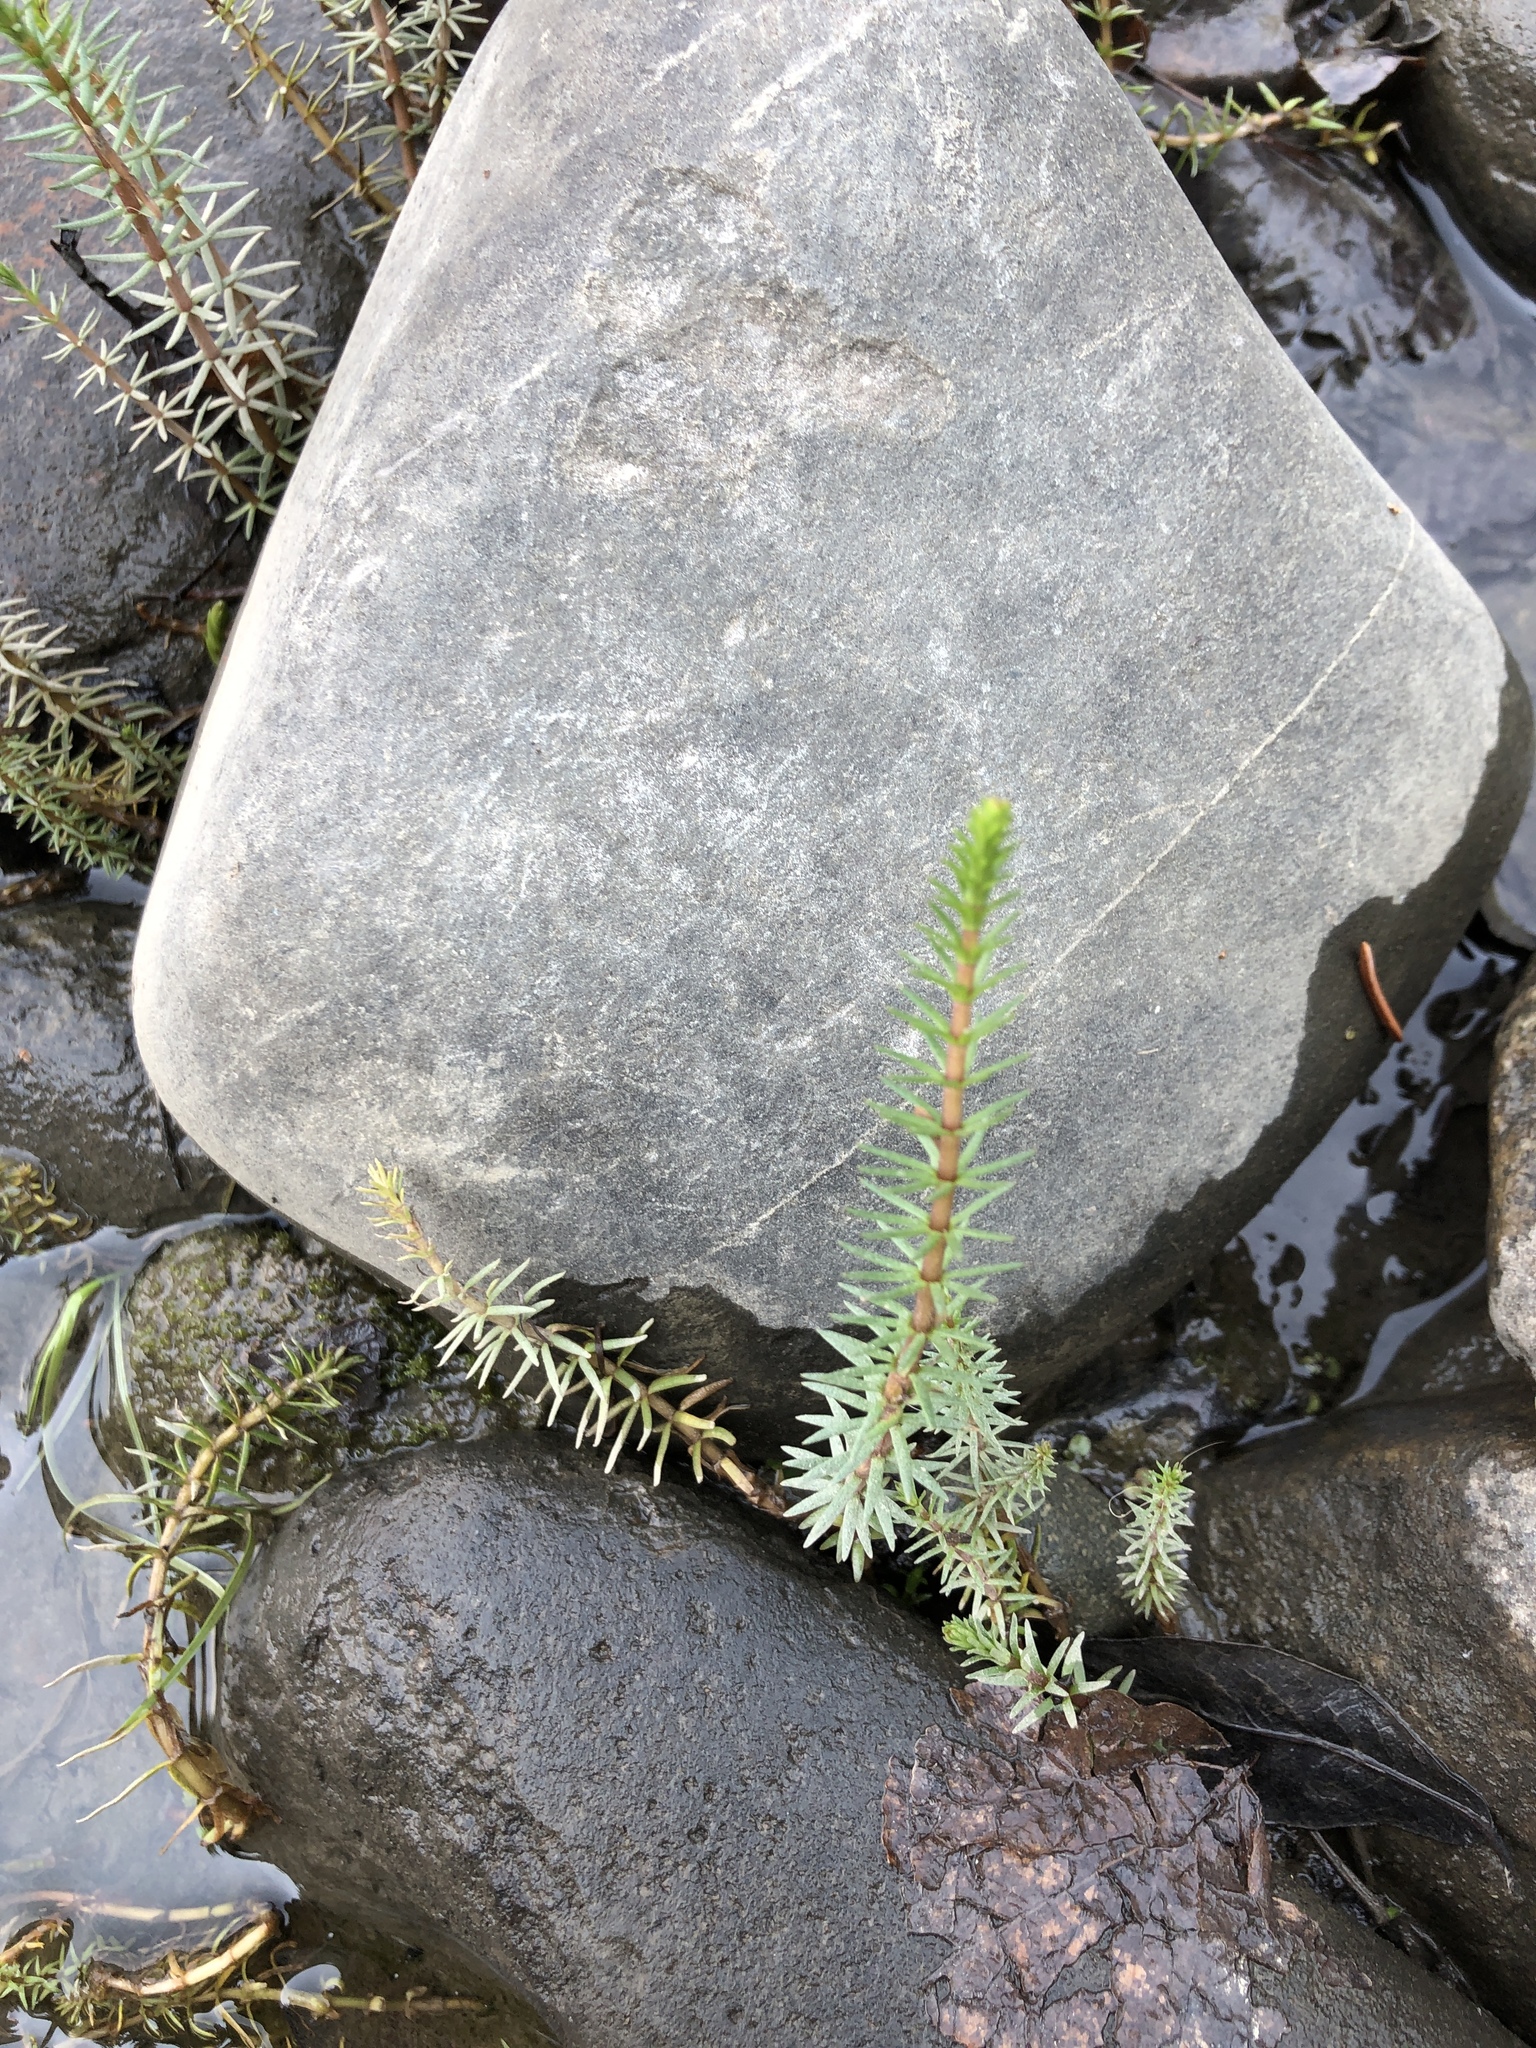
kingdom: Plantae
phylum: Tracheophyta
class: Magnoliopsida
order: Lamiales
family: Plantaginaceae
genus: Hippuris
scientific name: Hippuris vulgaris
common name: Mare's-tail
